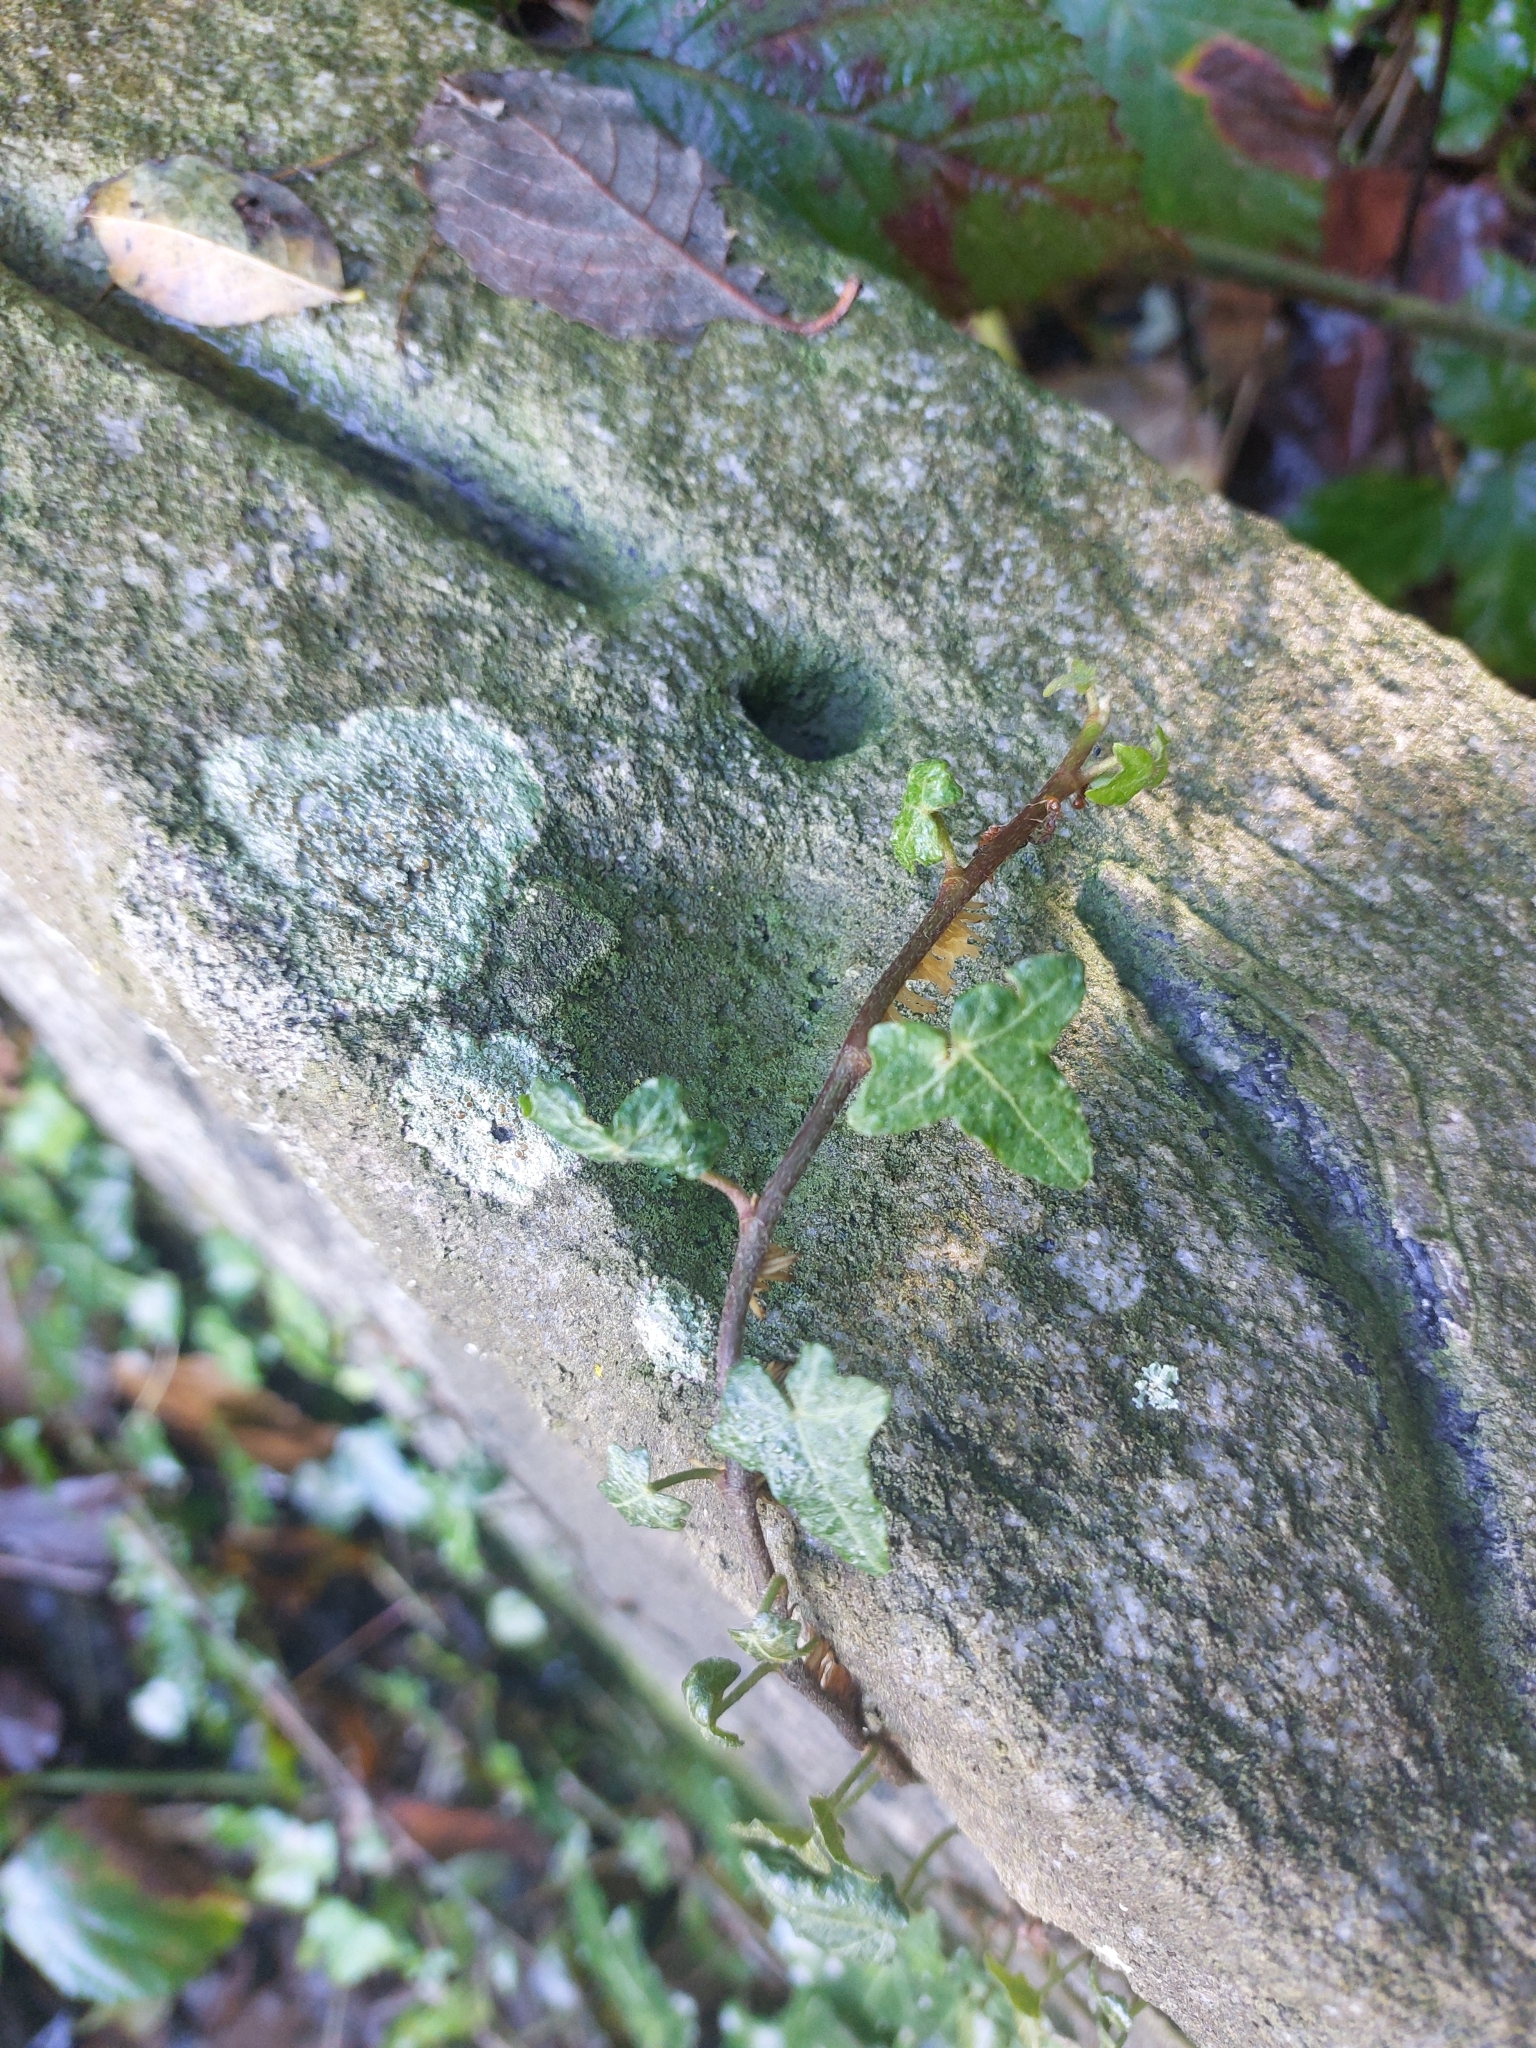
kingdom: Plantae
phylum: Tracheophyta
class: Magnoliopsida
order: Apiales
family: Araliaceae
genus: Hedera
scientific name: Hedera helix
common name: Ivy
